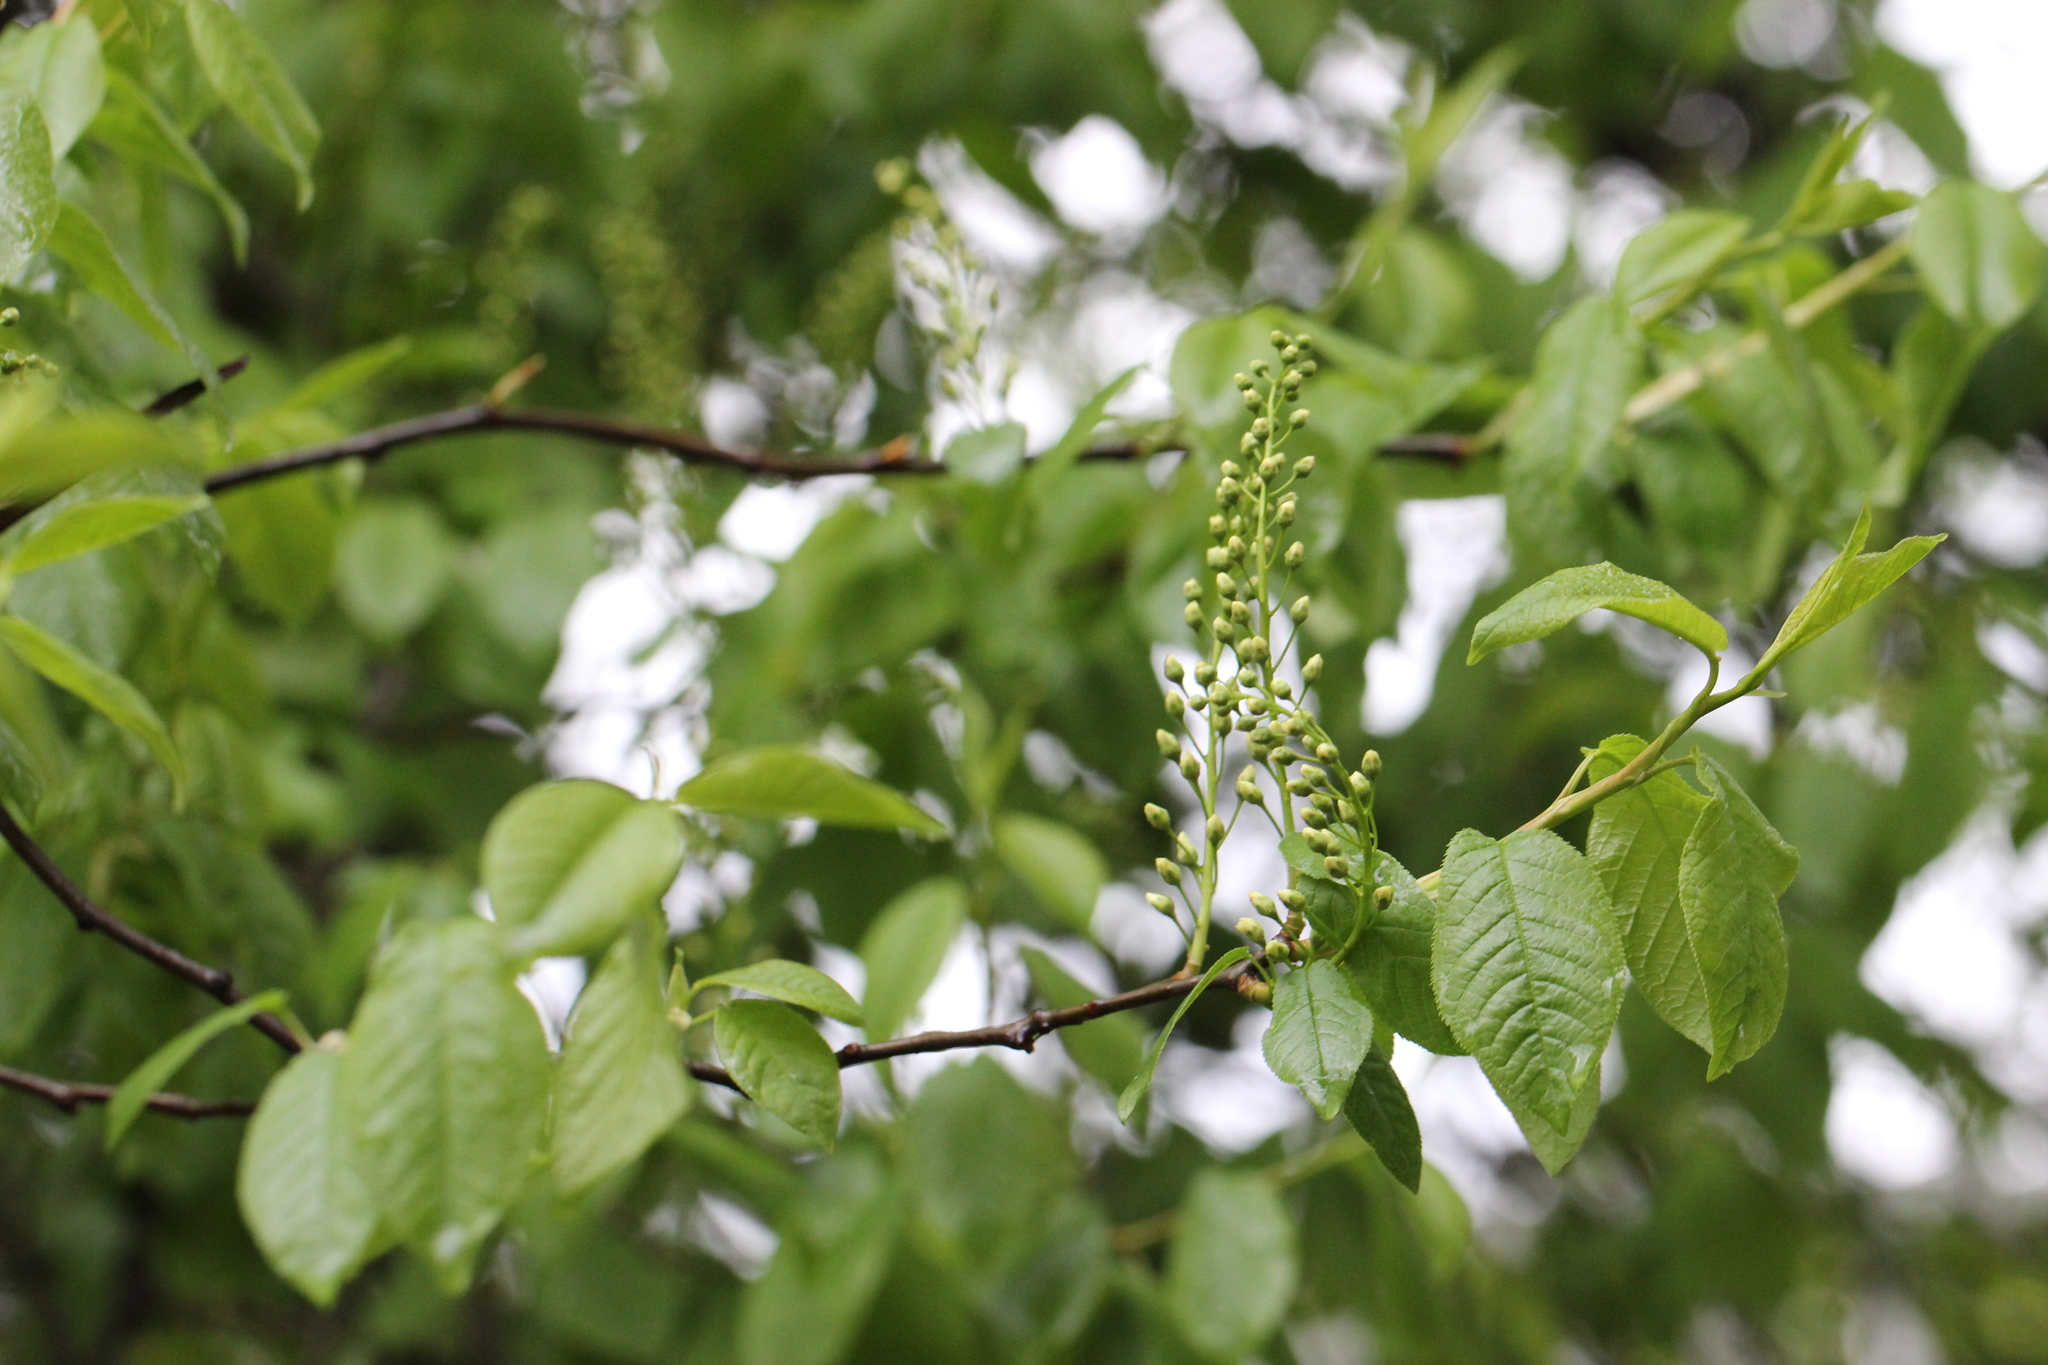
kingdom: Plantae
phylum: Tracheophyta
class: Magnoliopsida
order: Rosales
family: Rosaceae
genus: Prunus
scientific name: Prunus padus
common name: Bird cherry
